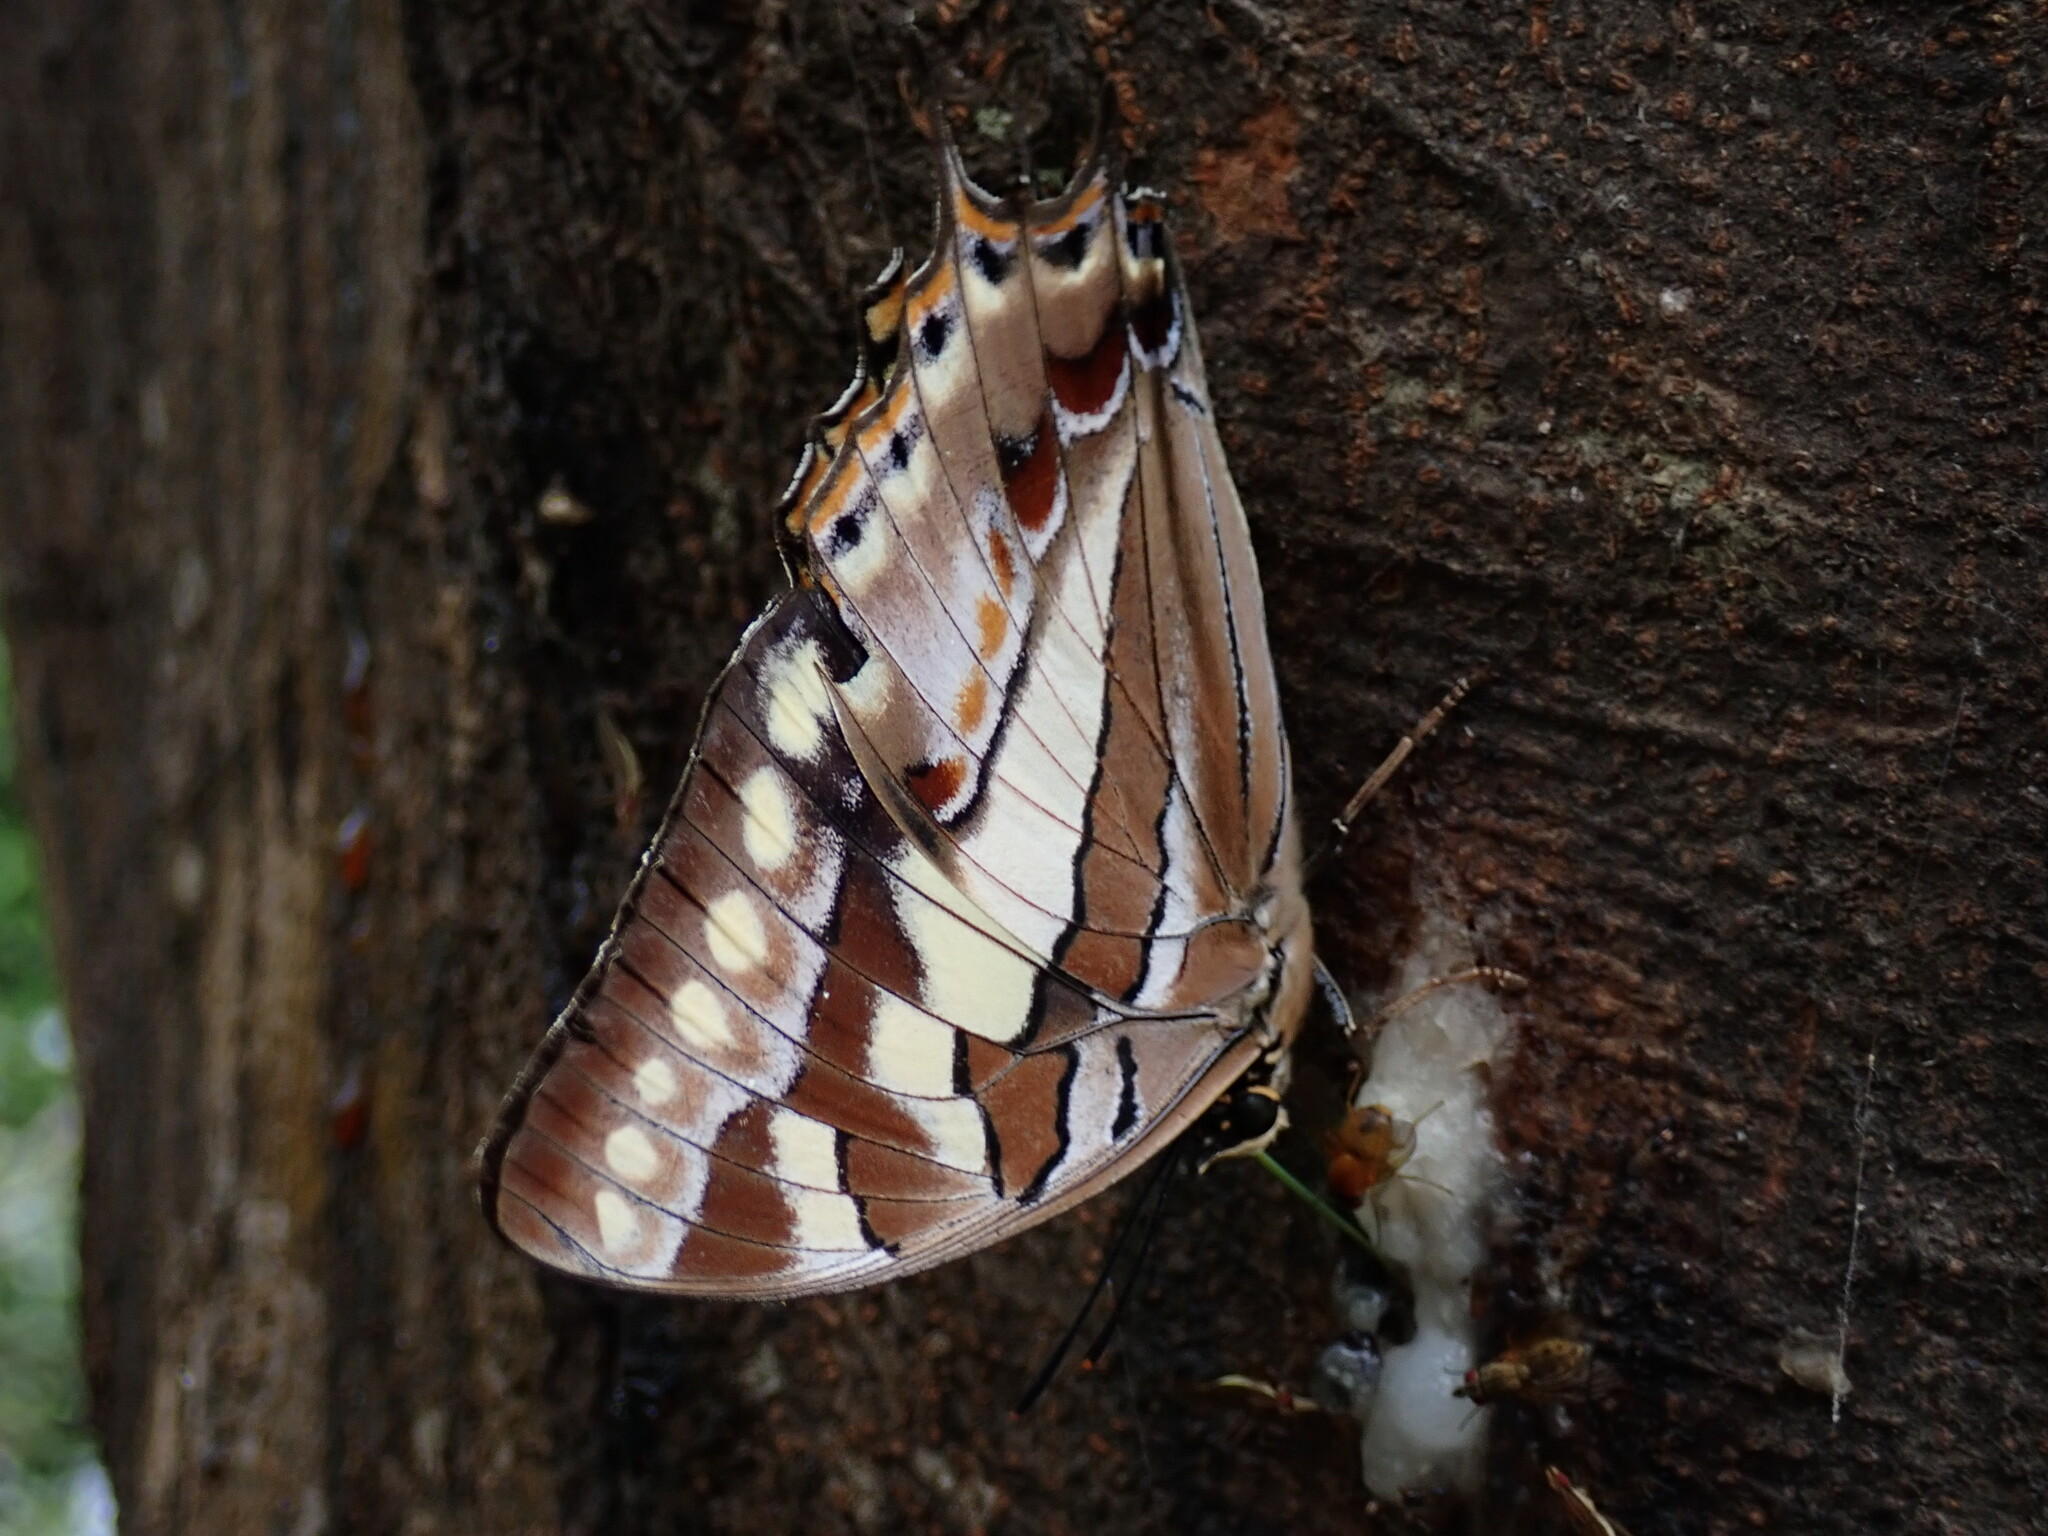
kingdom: Animalia
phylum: Arthropoda
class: Insecta
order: Lepidoptera
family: Nymphalidae
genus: Polyura
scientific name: Polyura sacco
